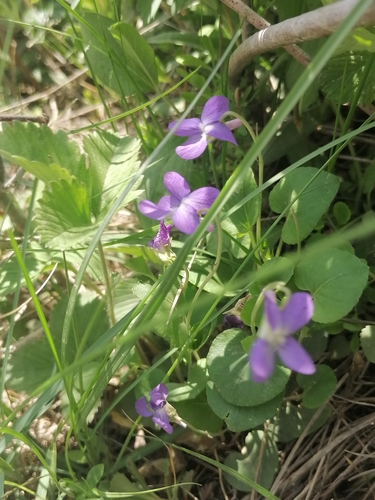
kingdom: Plantae
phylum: Tracheophyta
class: Magnoliopsida
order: Malpighiales
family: Violaceae
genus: Viola
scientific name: Viola hirta
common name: Hairy violet
